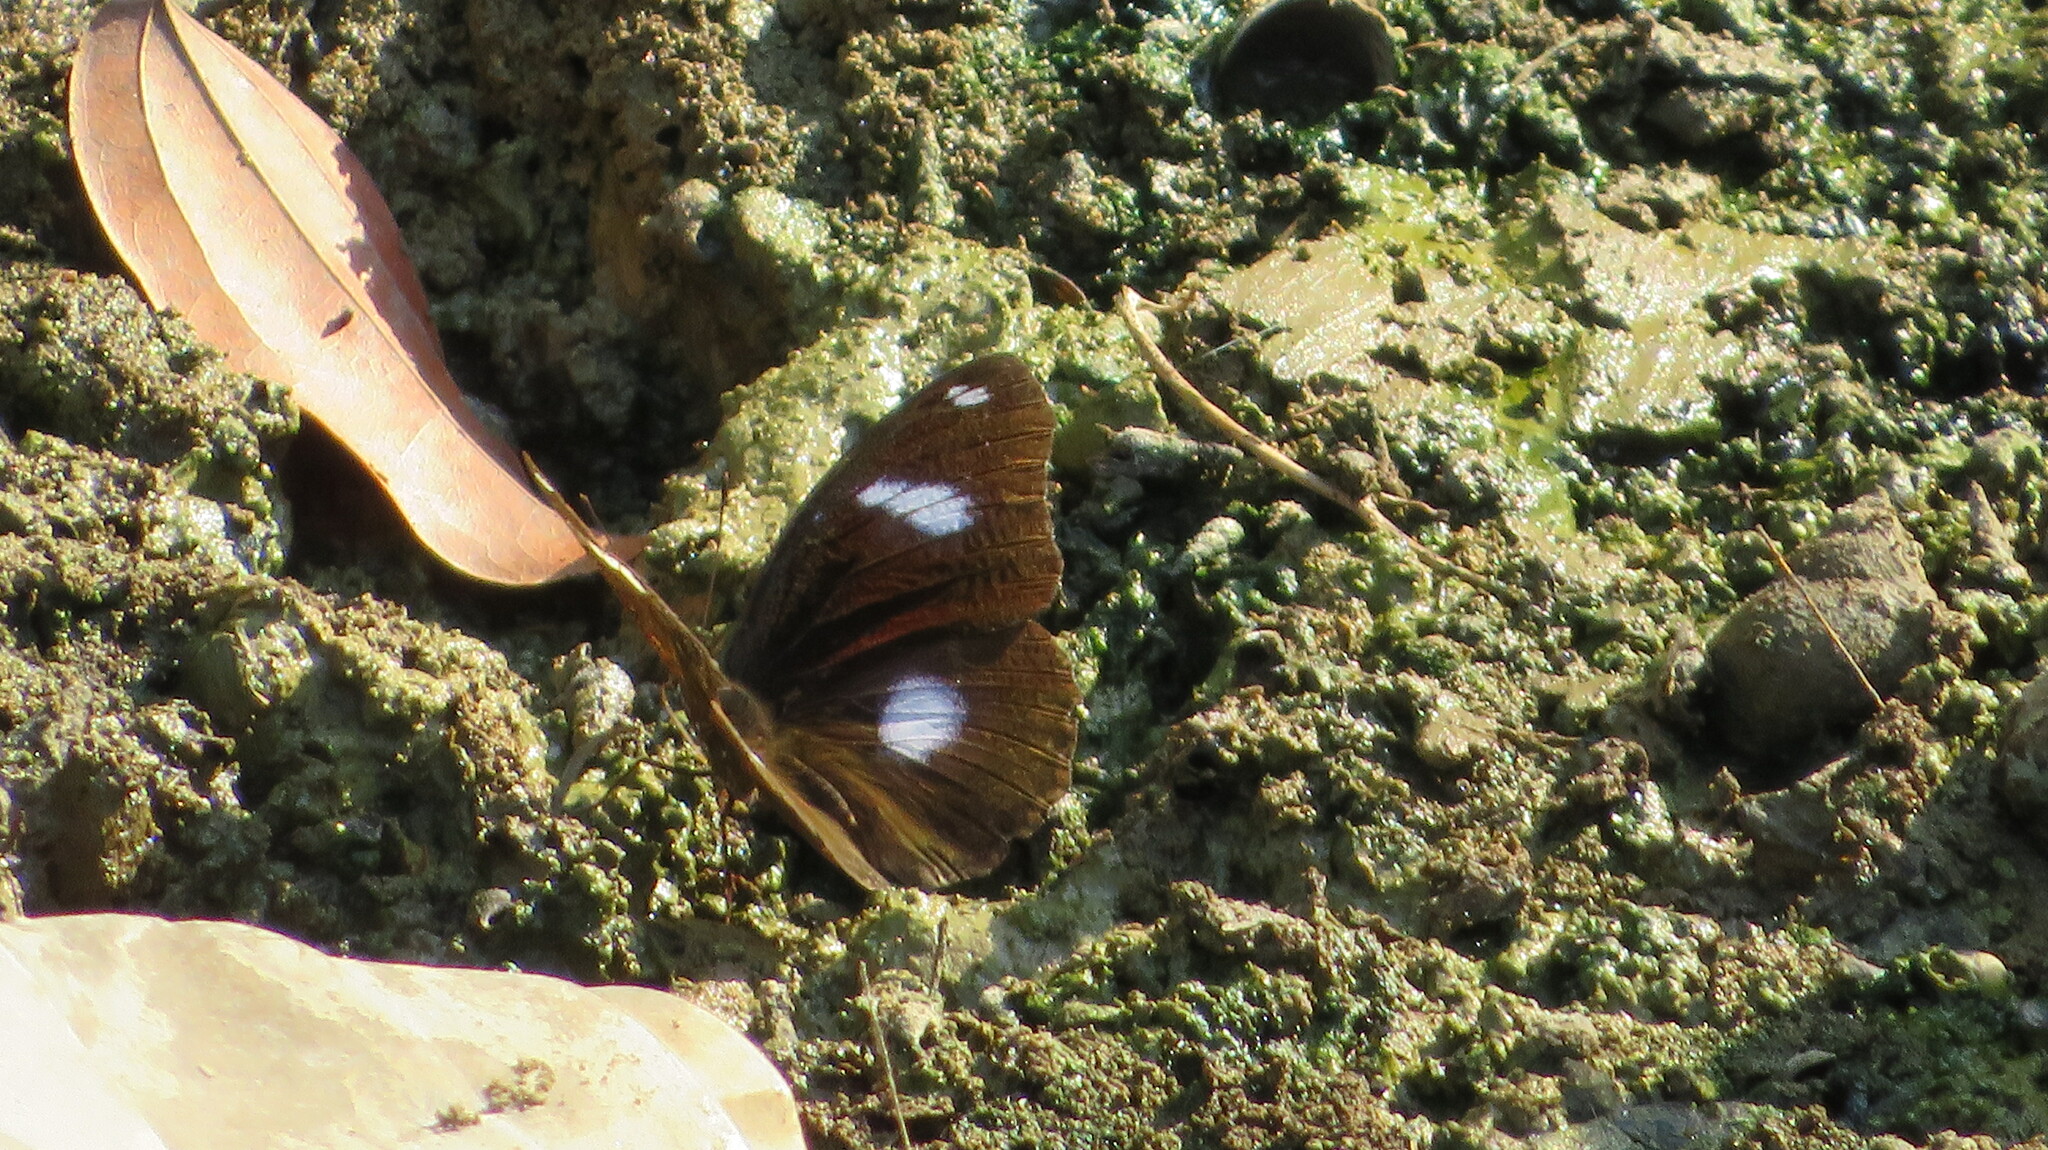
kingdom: Animalia
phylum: Arthropoda
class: Insecta
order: Lepidoptera
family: Nymphalidae
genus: Hypolimnas
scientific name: Hypolimnas bolina
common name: Great eggfly
